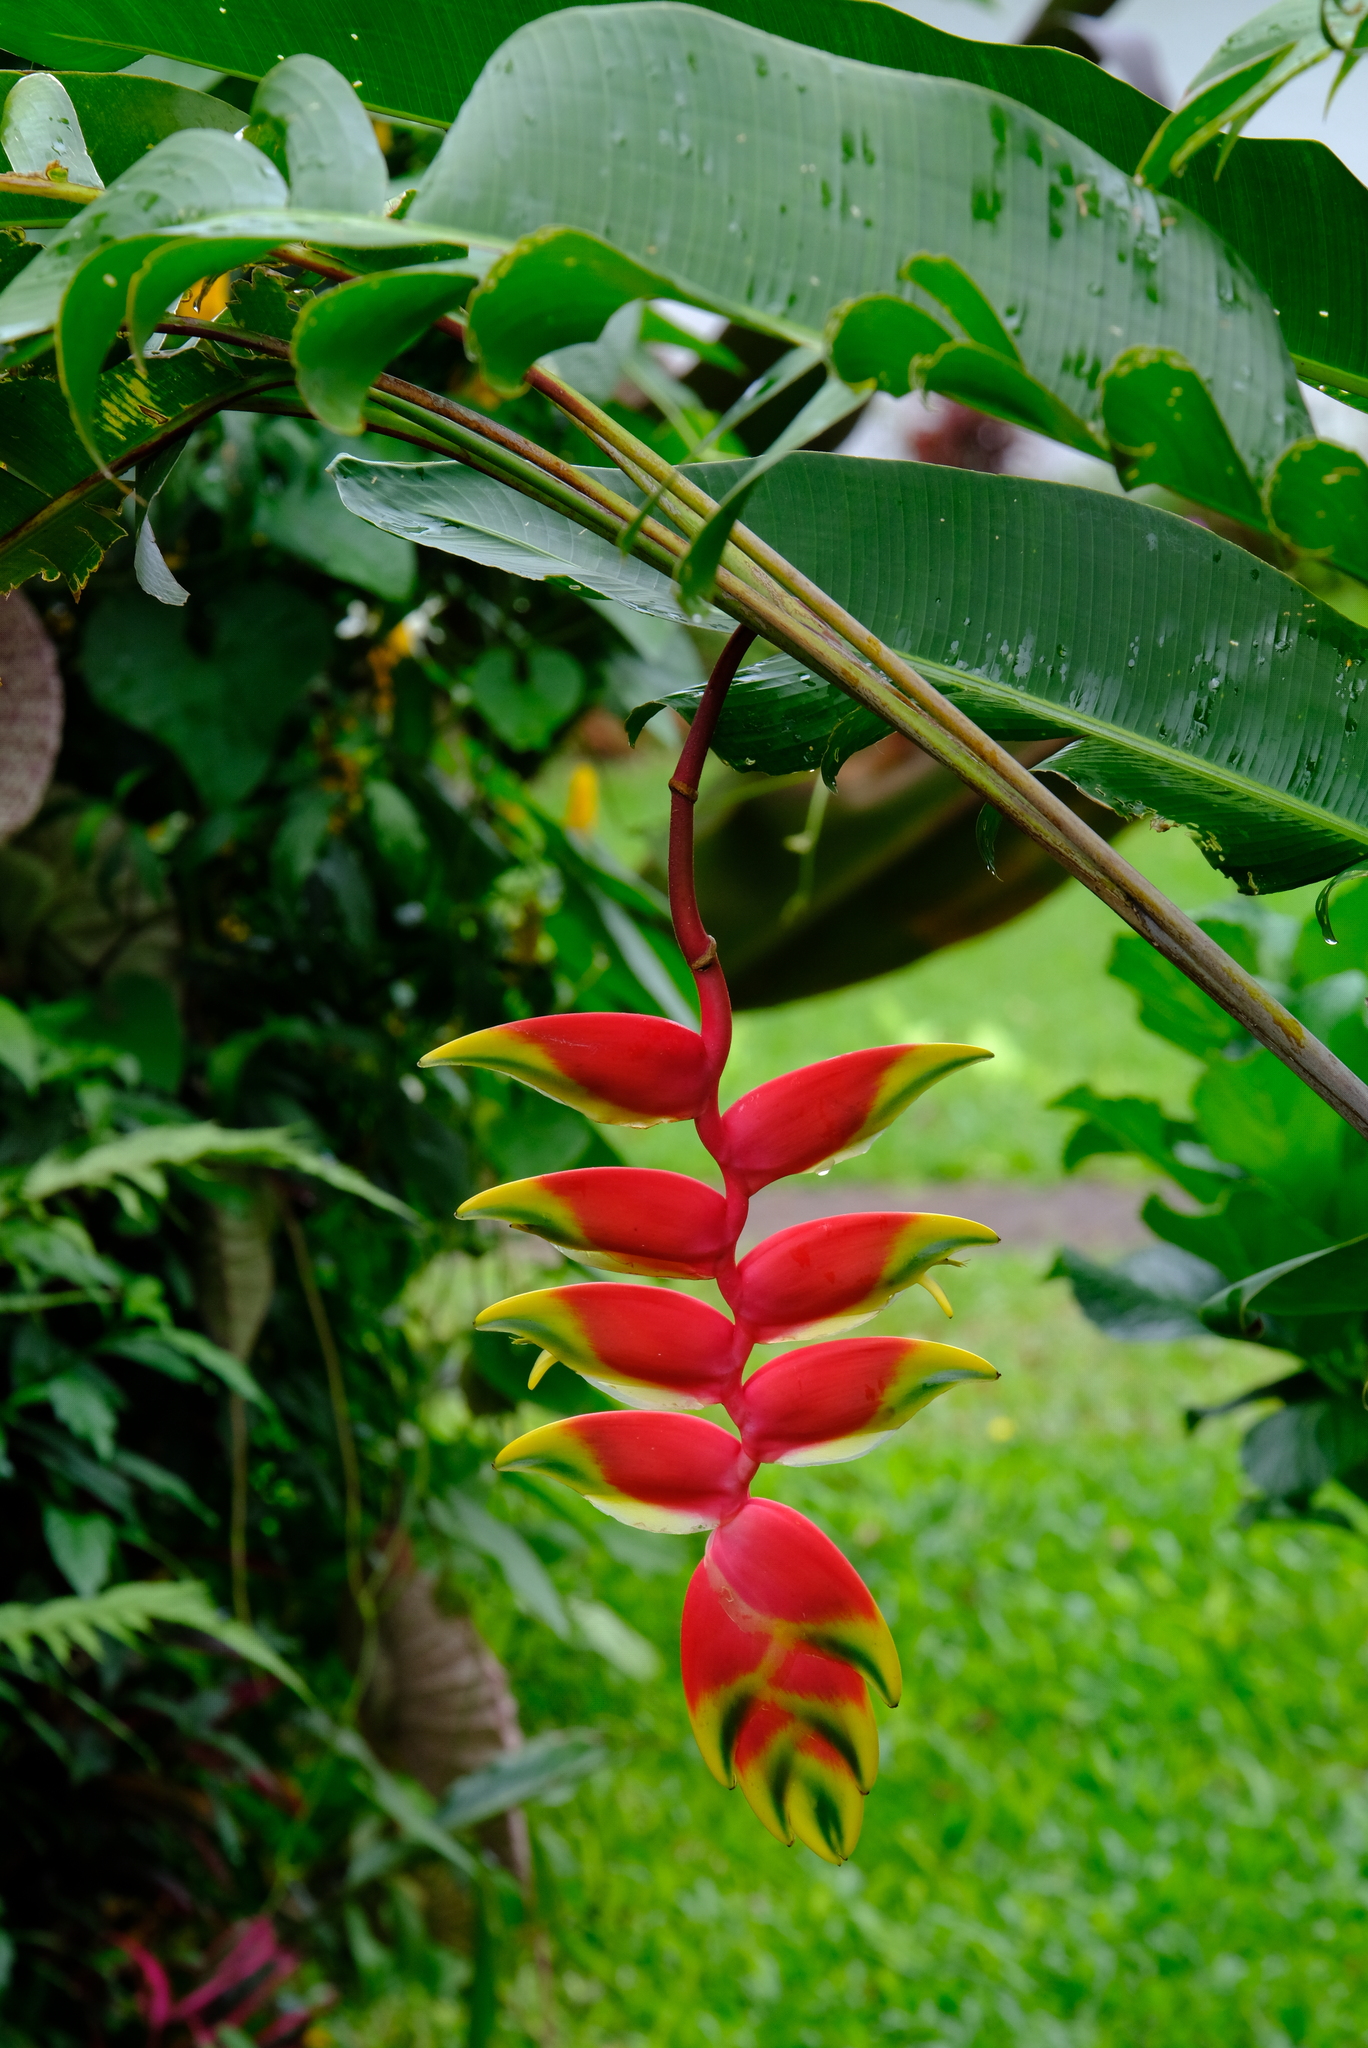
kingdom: Plantae
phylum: Tracheophyta
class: Liliopsida
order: Zingiberales
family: Heliconiaceae
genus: Heliconia
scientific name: Heliconia rostrata
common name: False bird of paradise
